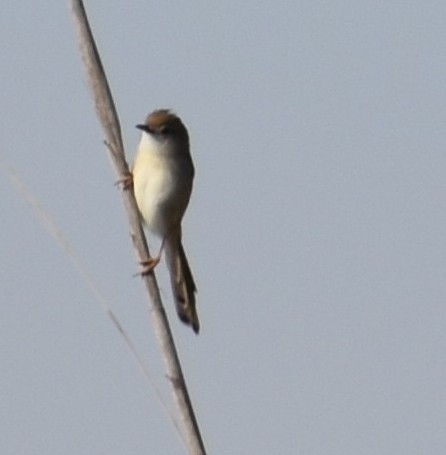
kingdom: Animalia
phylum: Chordata
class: Aves
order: Passeriformes
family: Cisticolidae
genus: Prinia
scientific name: Prinia lepida
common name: Delicate prinia
